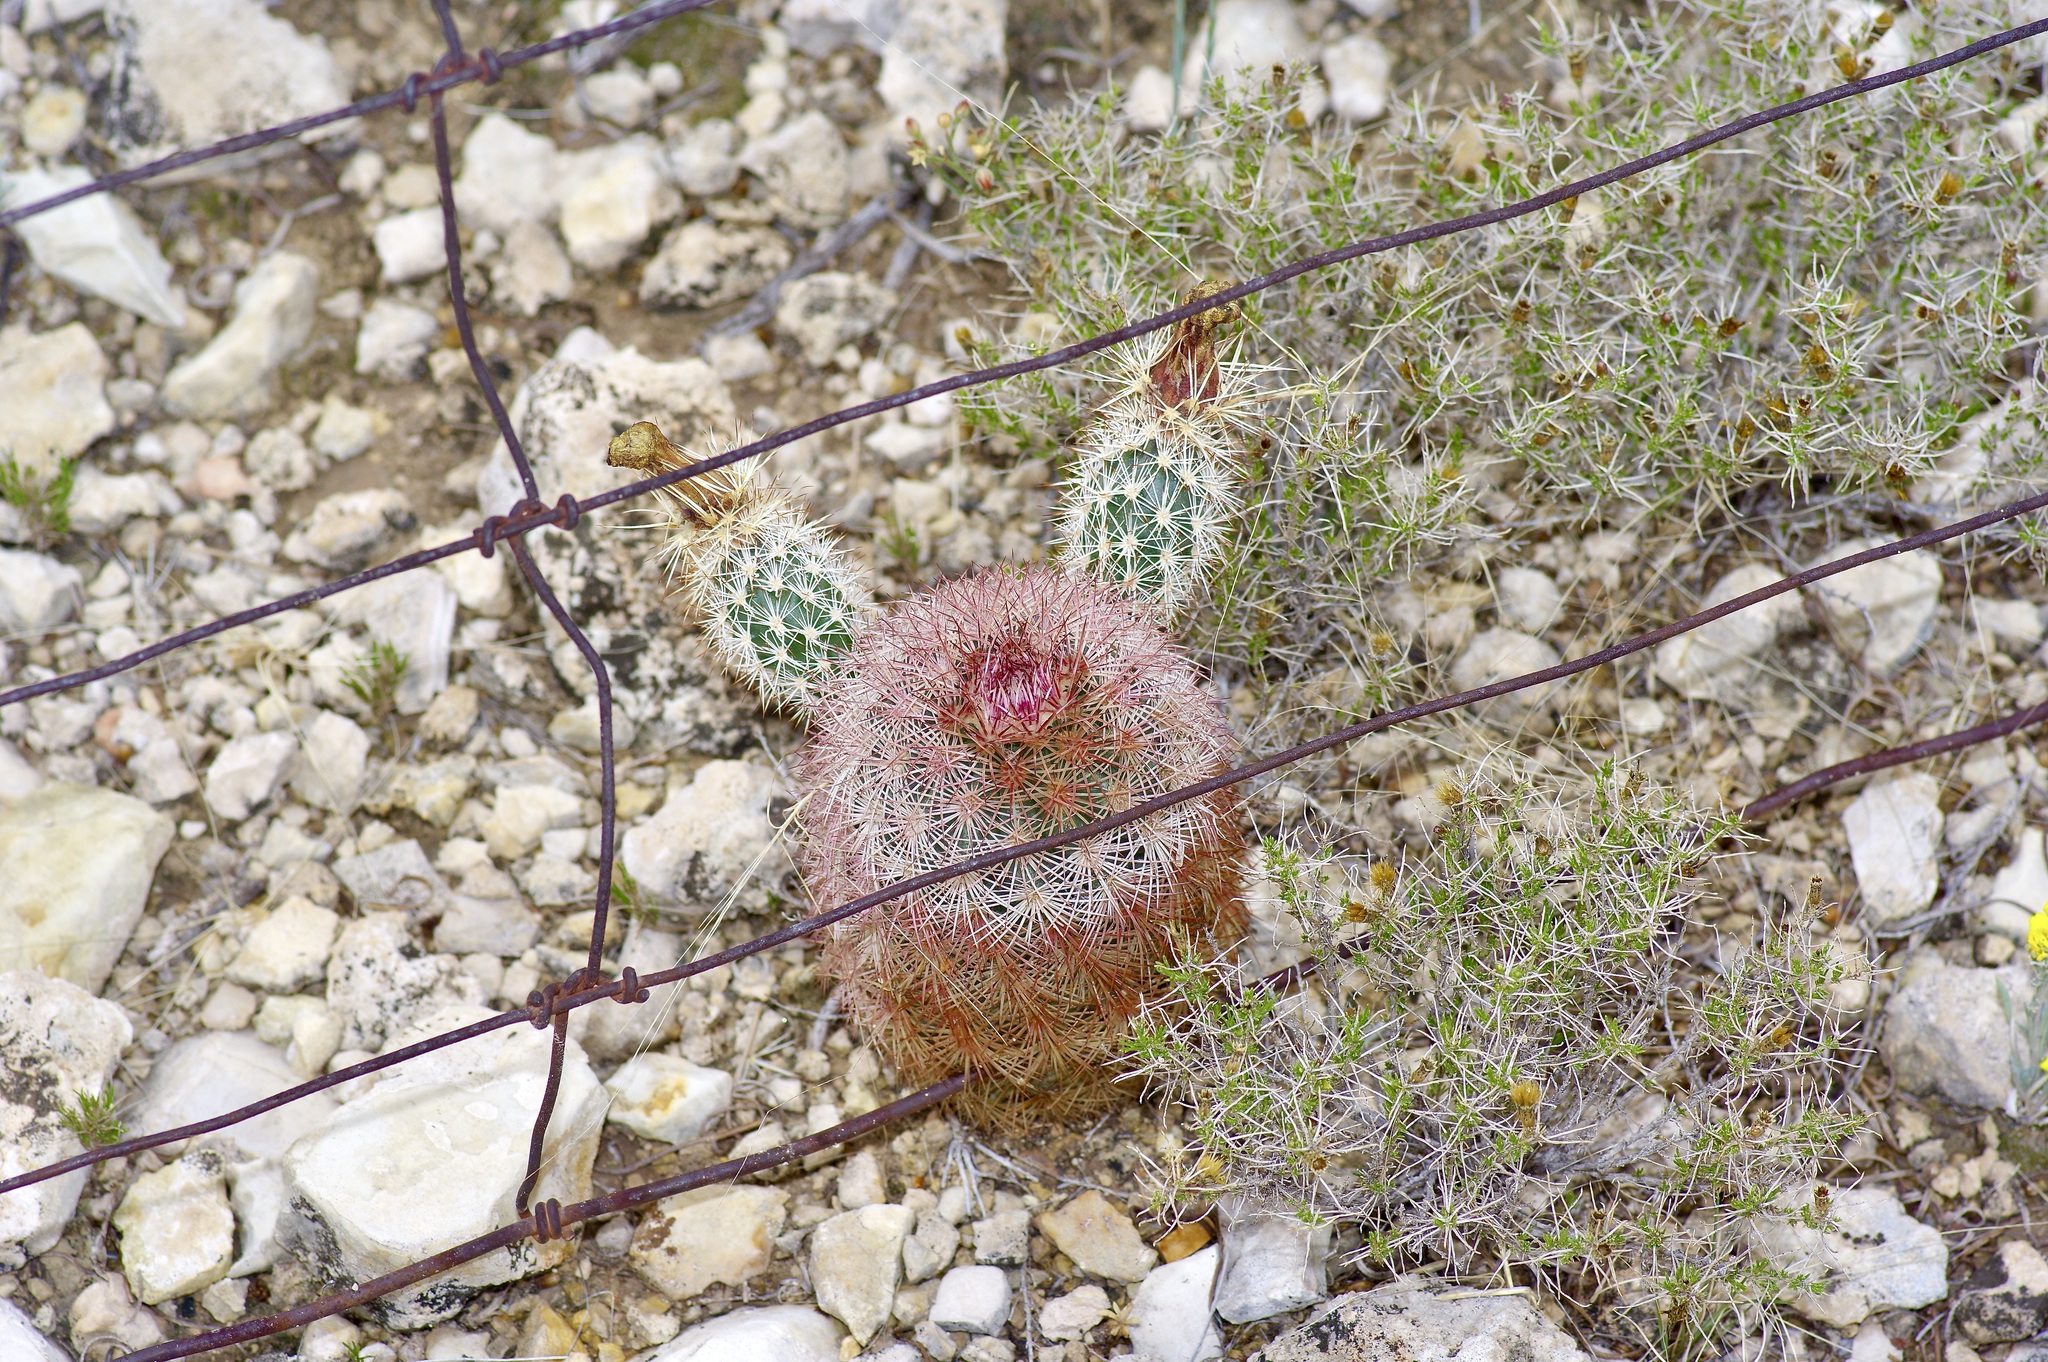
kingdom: Plantae
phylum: Tracheophyta
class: Magnoliopsida
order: Caryophyllales
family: Cactaceae
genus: Echinocereus
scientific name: Echinocereus dasyacanthus
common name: Spiny hedgehog cactus
